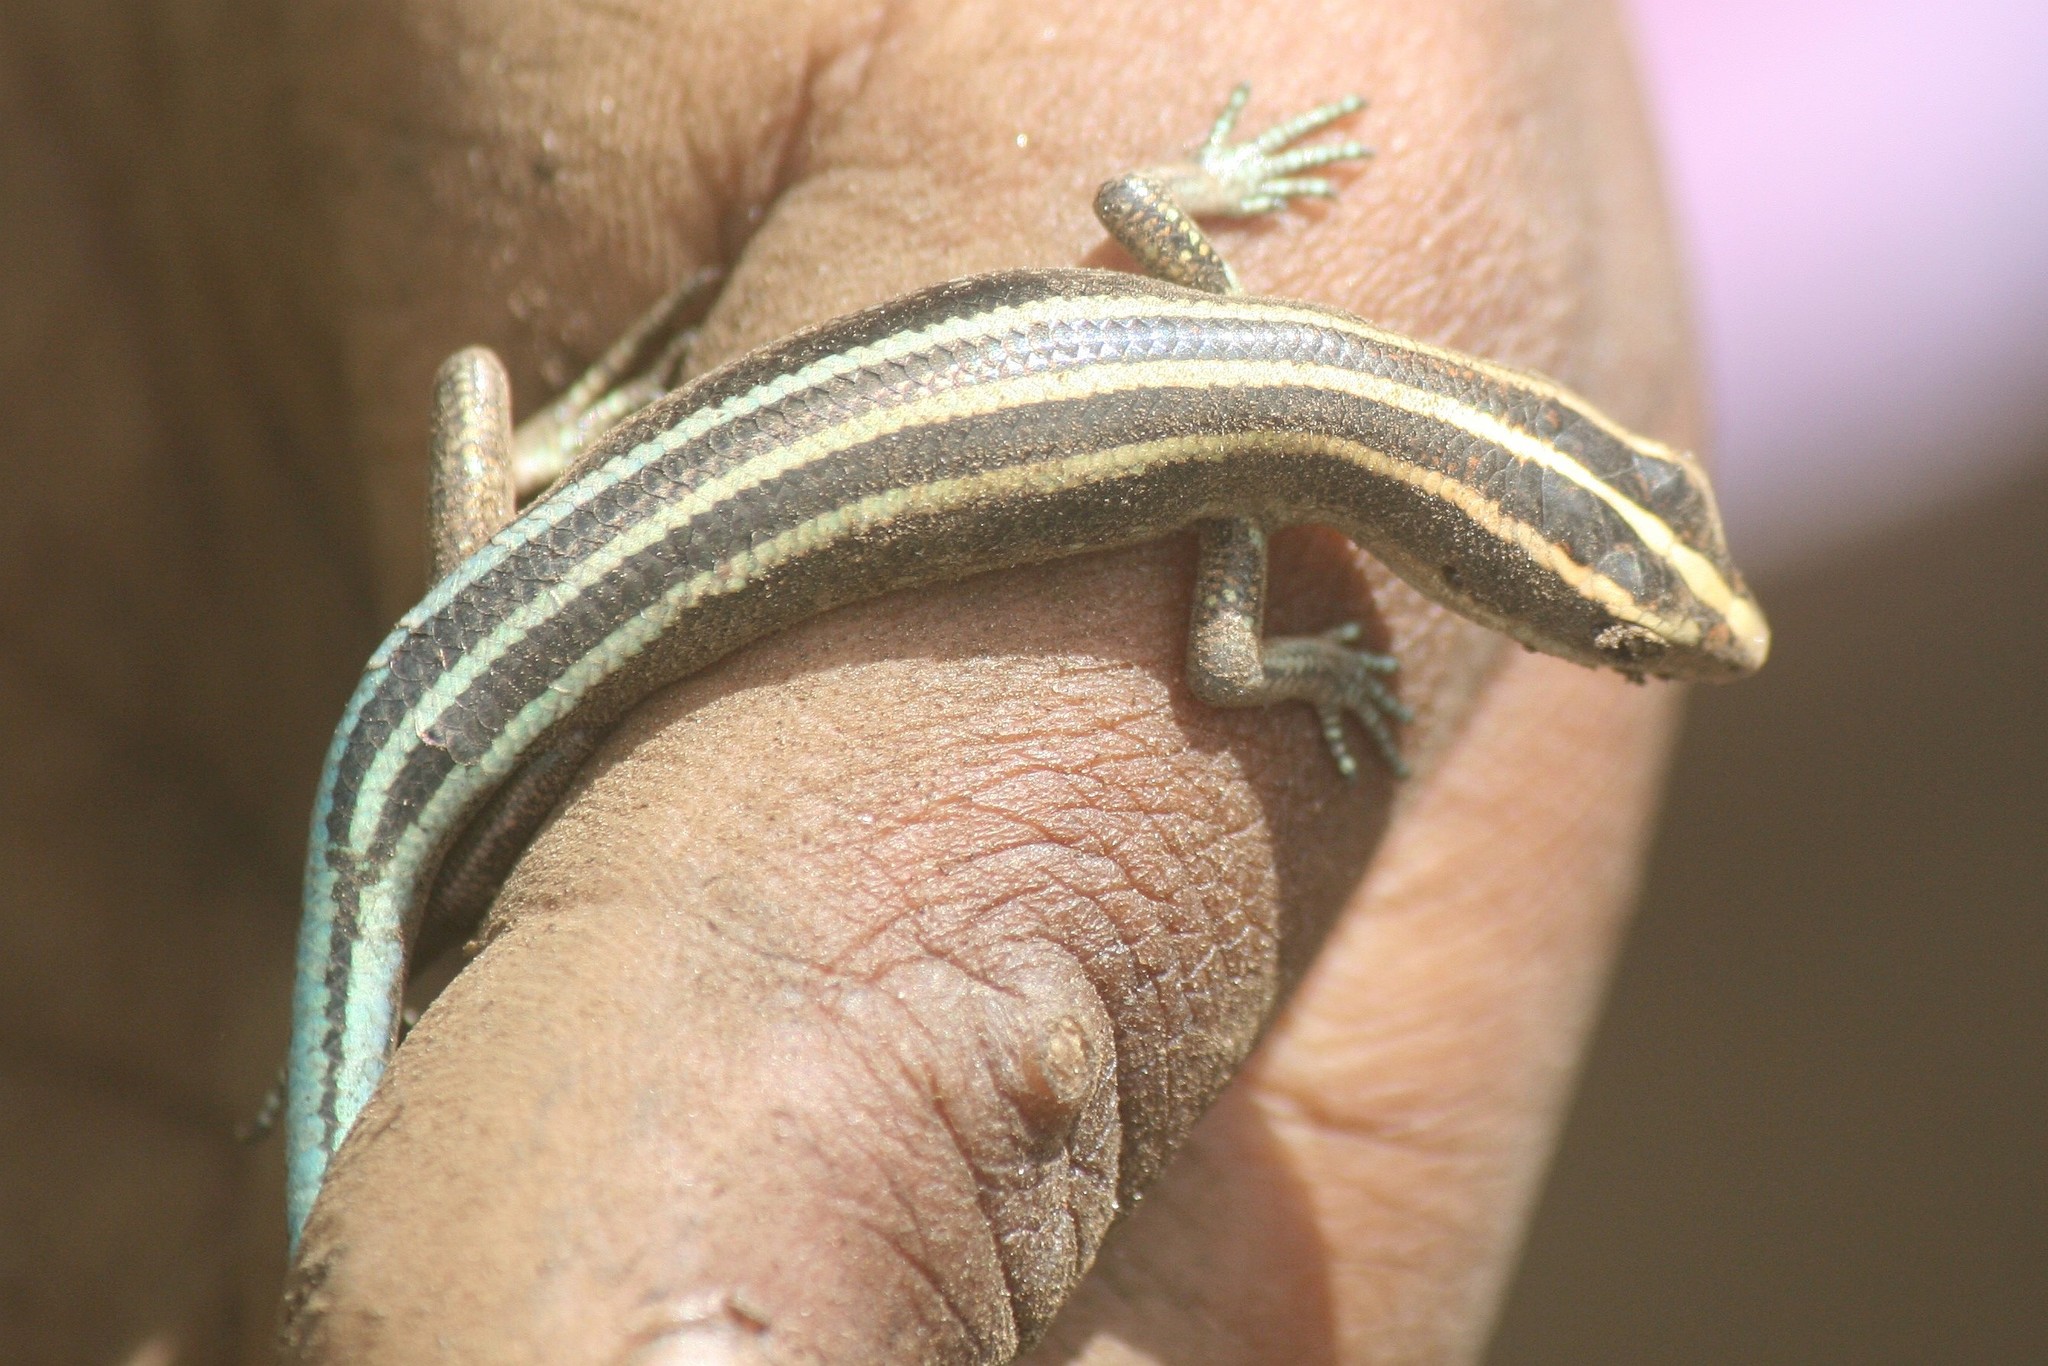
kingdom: Animalia
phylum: Chordata
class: Squamata
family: Scincidae
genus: Emoia
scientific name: Emoia caeruleocauda
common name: Pacific bluetail skink
